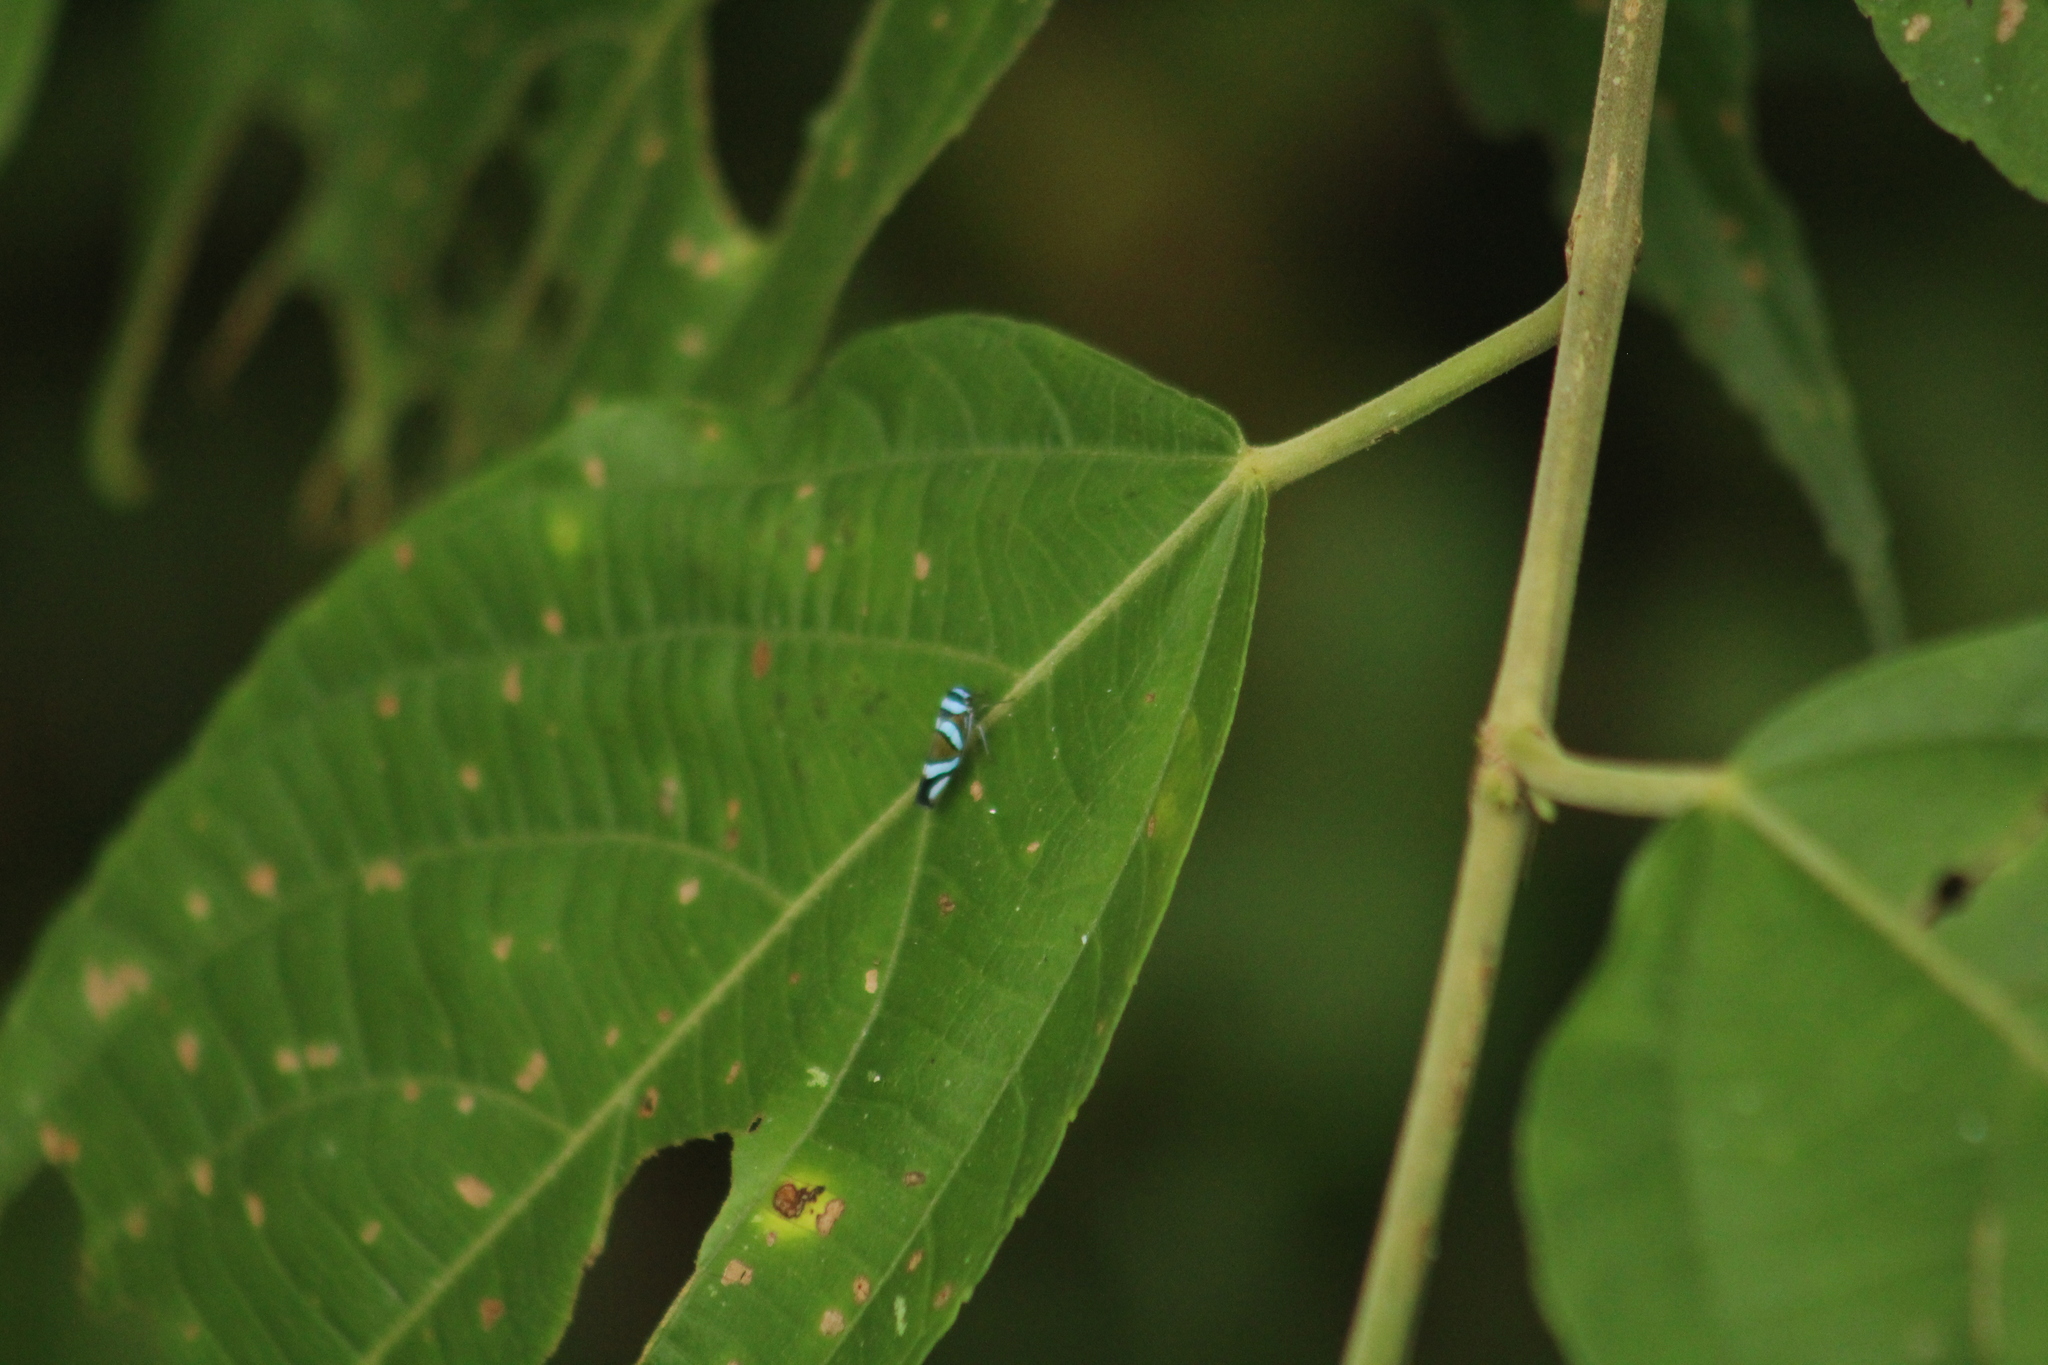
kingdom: Animalia
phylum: Arthropoda
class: Insecta
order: Hemiptera
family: Cicadellidae
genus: Macugonalia
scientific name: Macugonalia moesta
